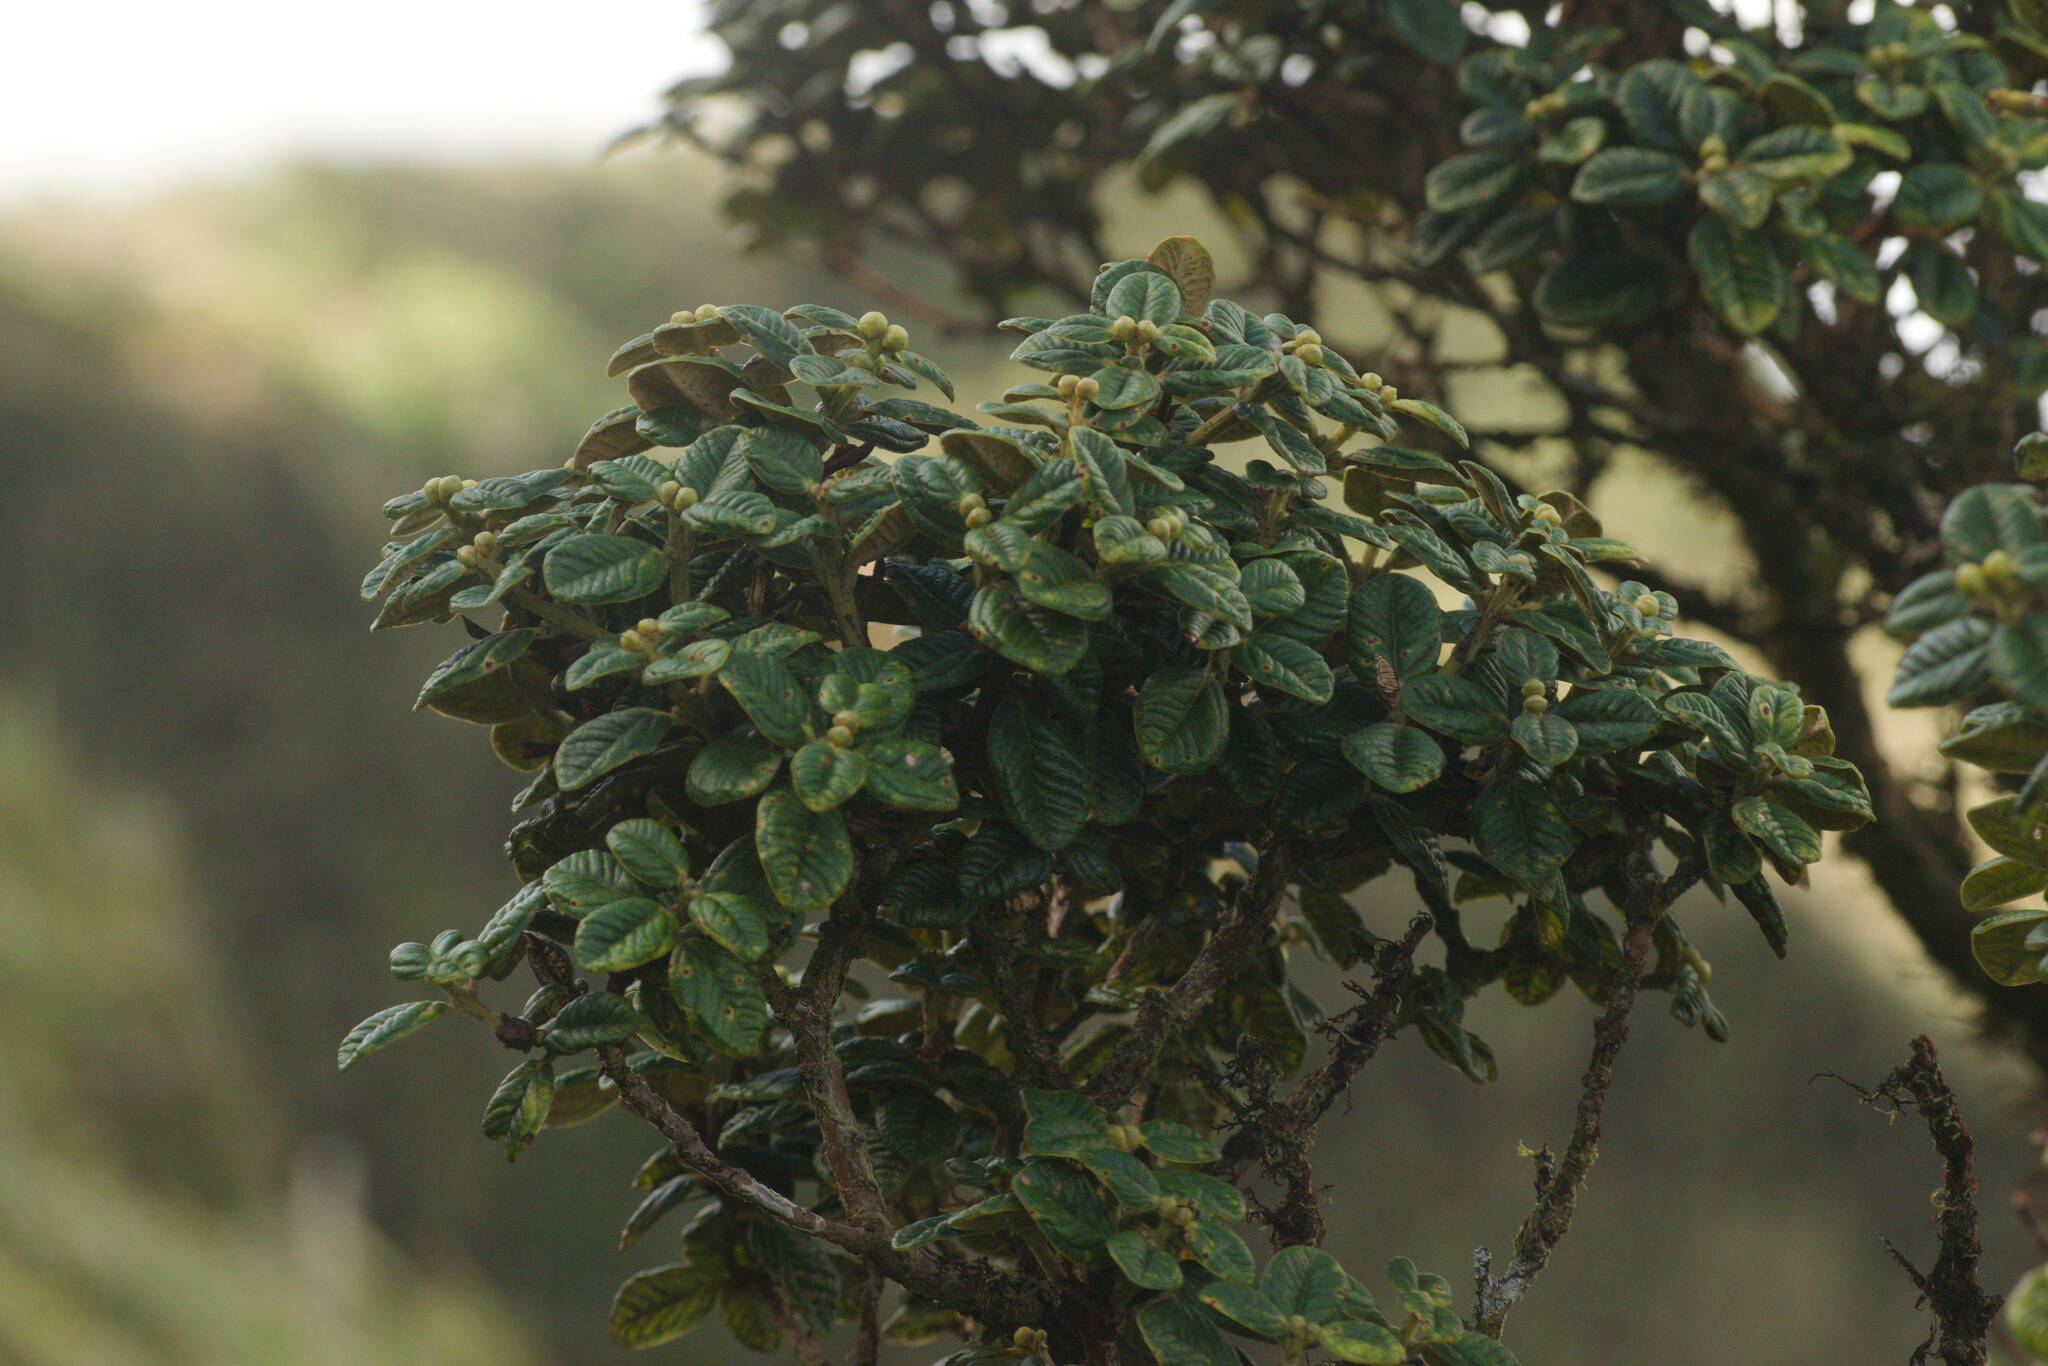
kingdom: Plantae
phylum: Tracheophyta
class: Magnoliopsida
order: Myrtales
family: Myrtaceae
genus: Metrosideros
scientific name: Metrosideros rugosa
